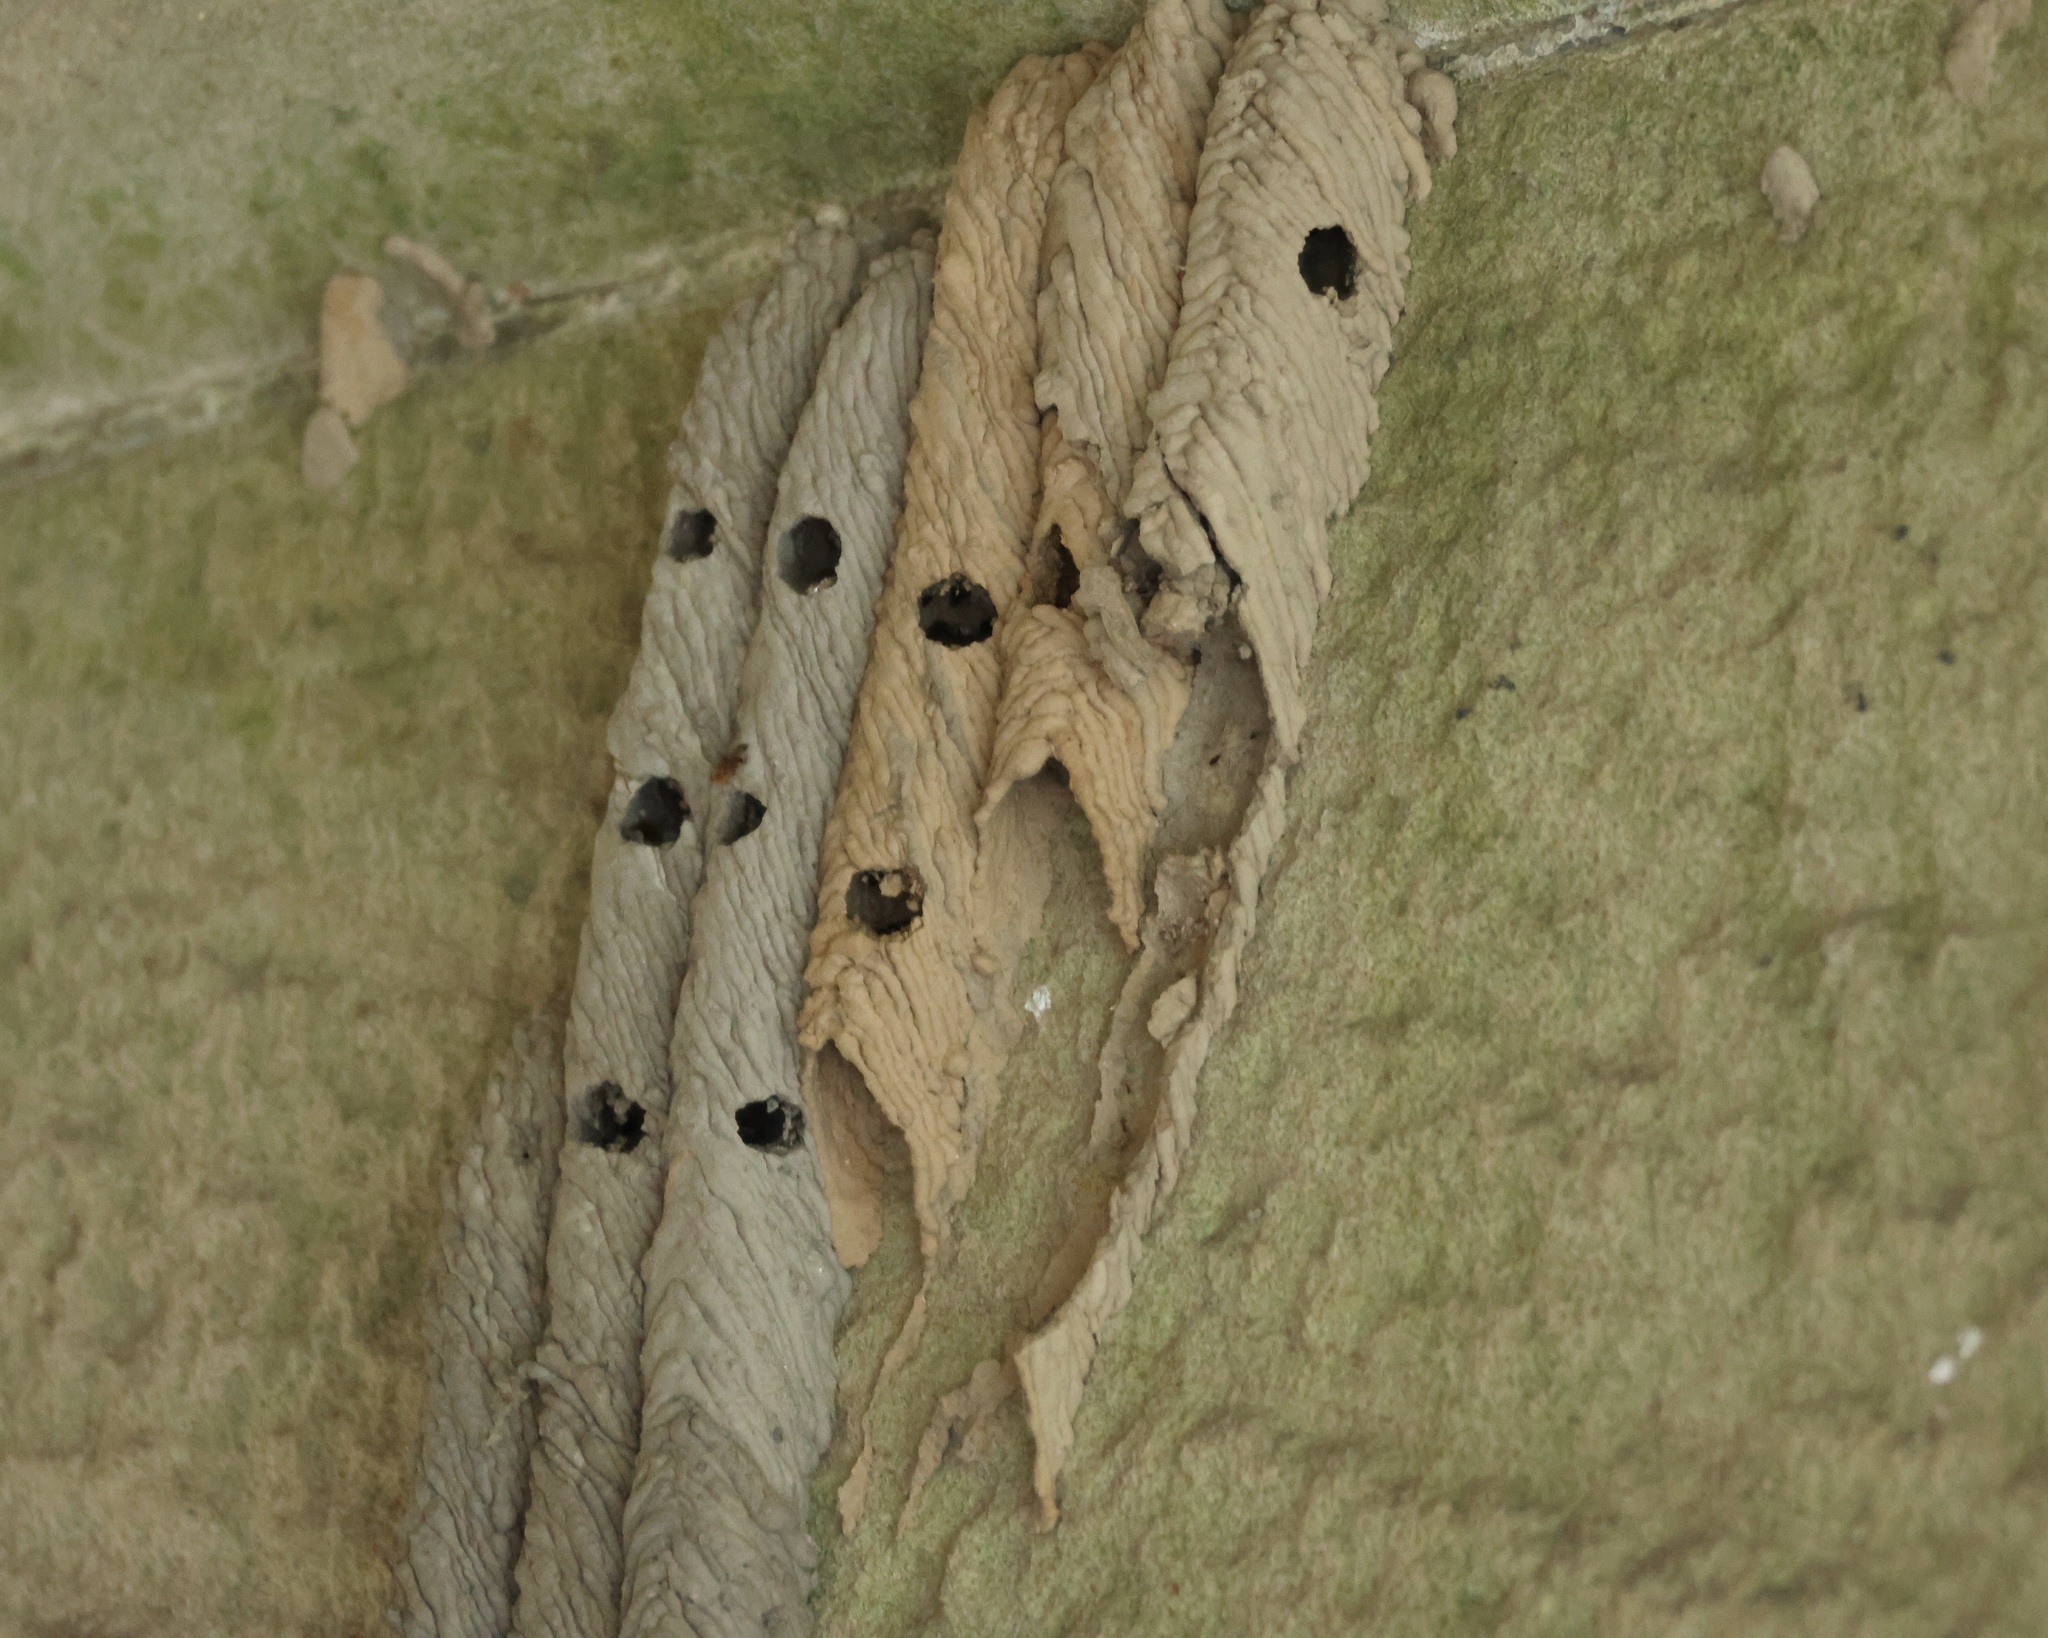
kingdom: Animalia
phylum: Arthropoda
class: Insecta
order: Hymenoptera
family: Crabronidae
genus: Trypoxylon
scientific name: Trypoxylon politum
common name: Organ-pipe mud-dauber wasp
